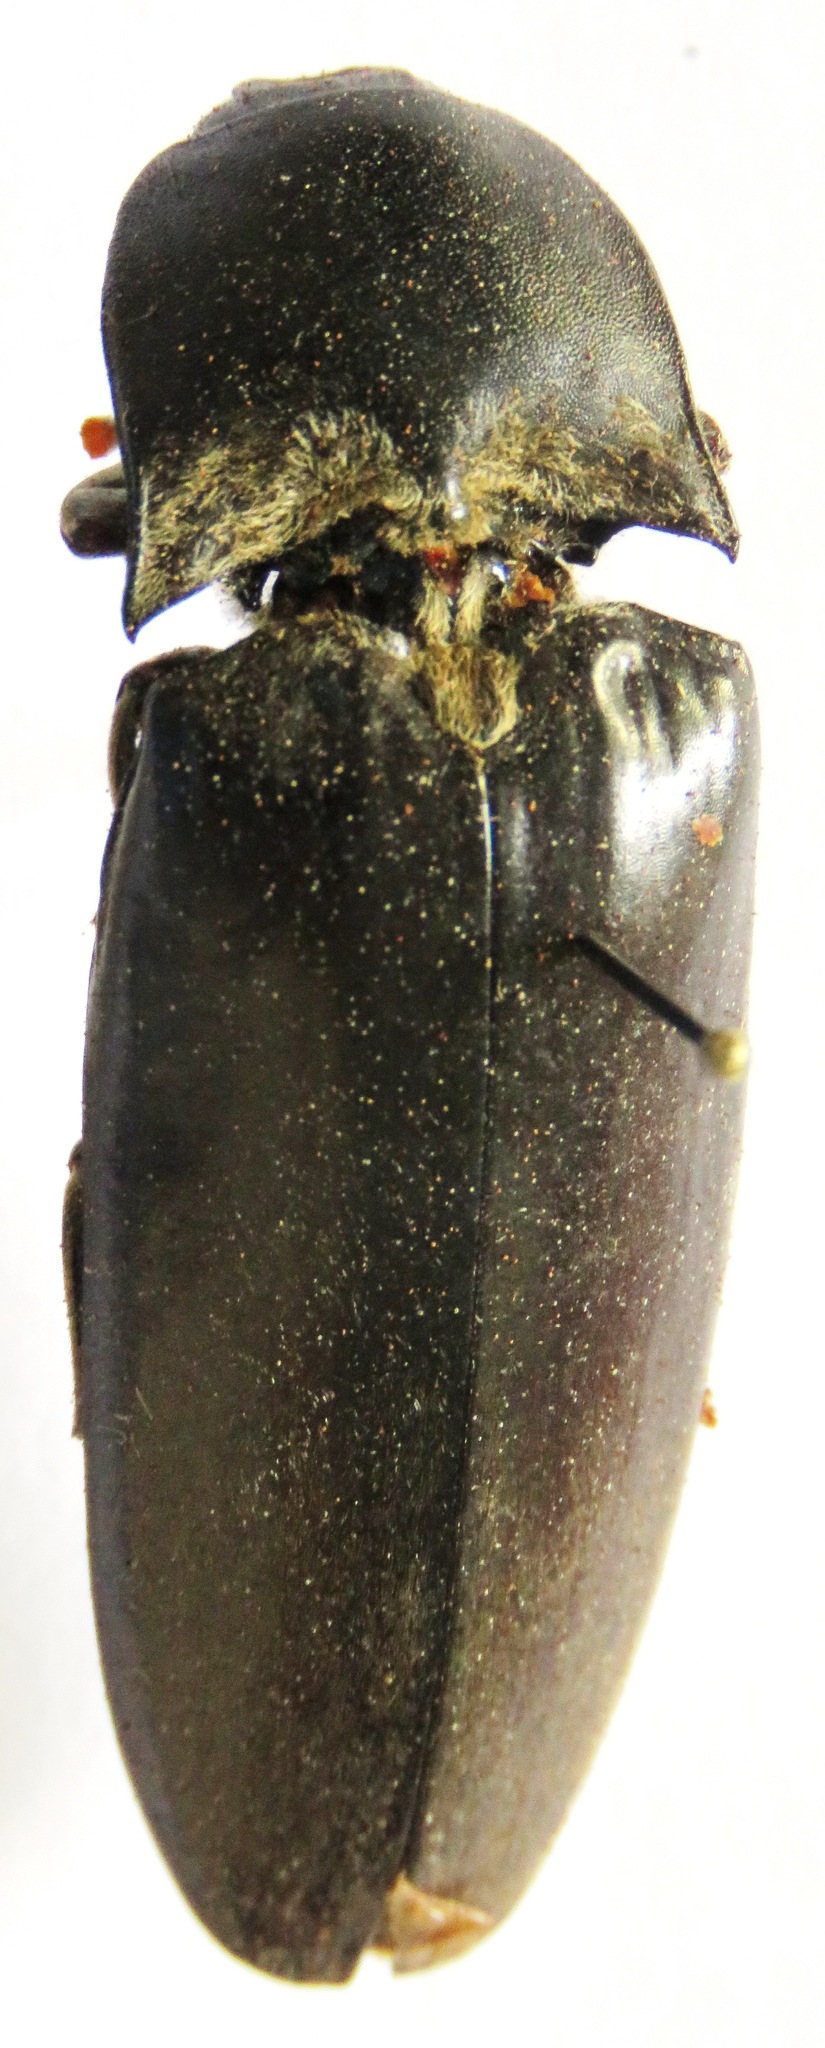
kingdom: Animalia
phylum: Arthropoda
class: Insecta
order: Coleoptera
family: Elateridae
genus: Tetralobus
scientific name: Tetralobus rotundifrons
